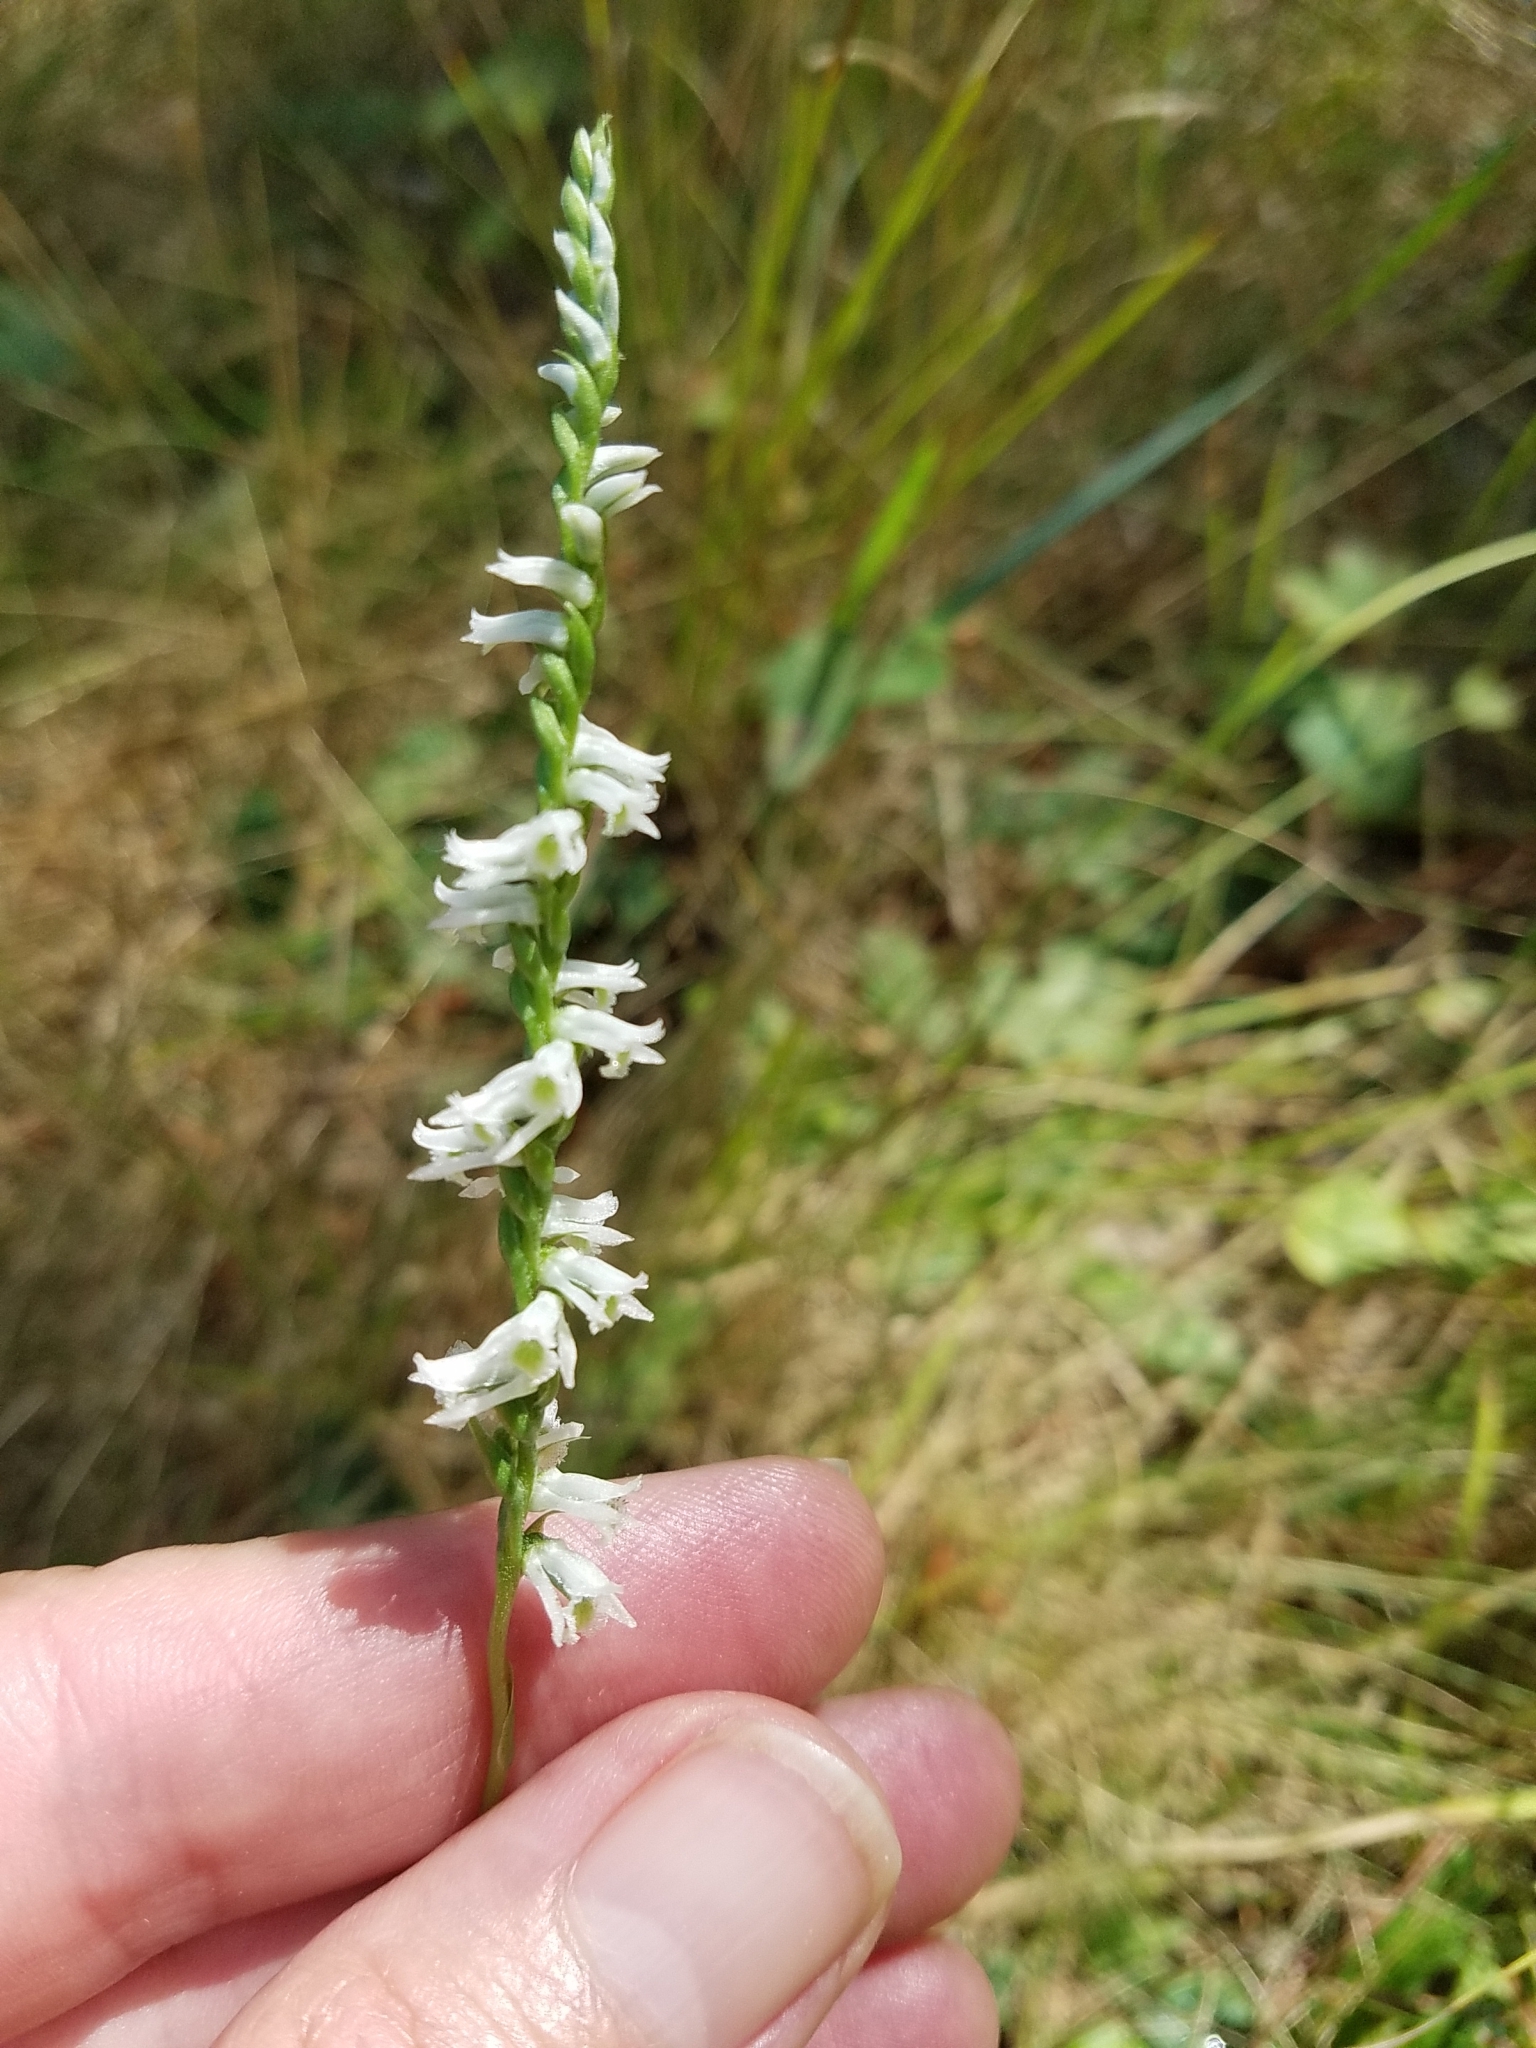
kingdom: Plantae
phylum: Tracheophyta
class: Liliopsida
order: Asparagales
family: Orchidaceae
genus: Spiranthes
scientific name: Spiranthes lacera
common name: Northern slender ladies'-tresses
